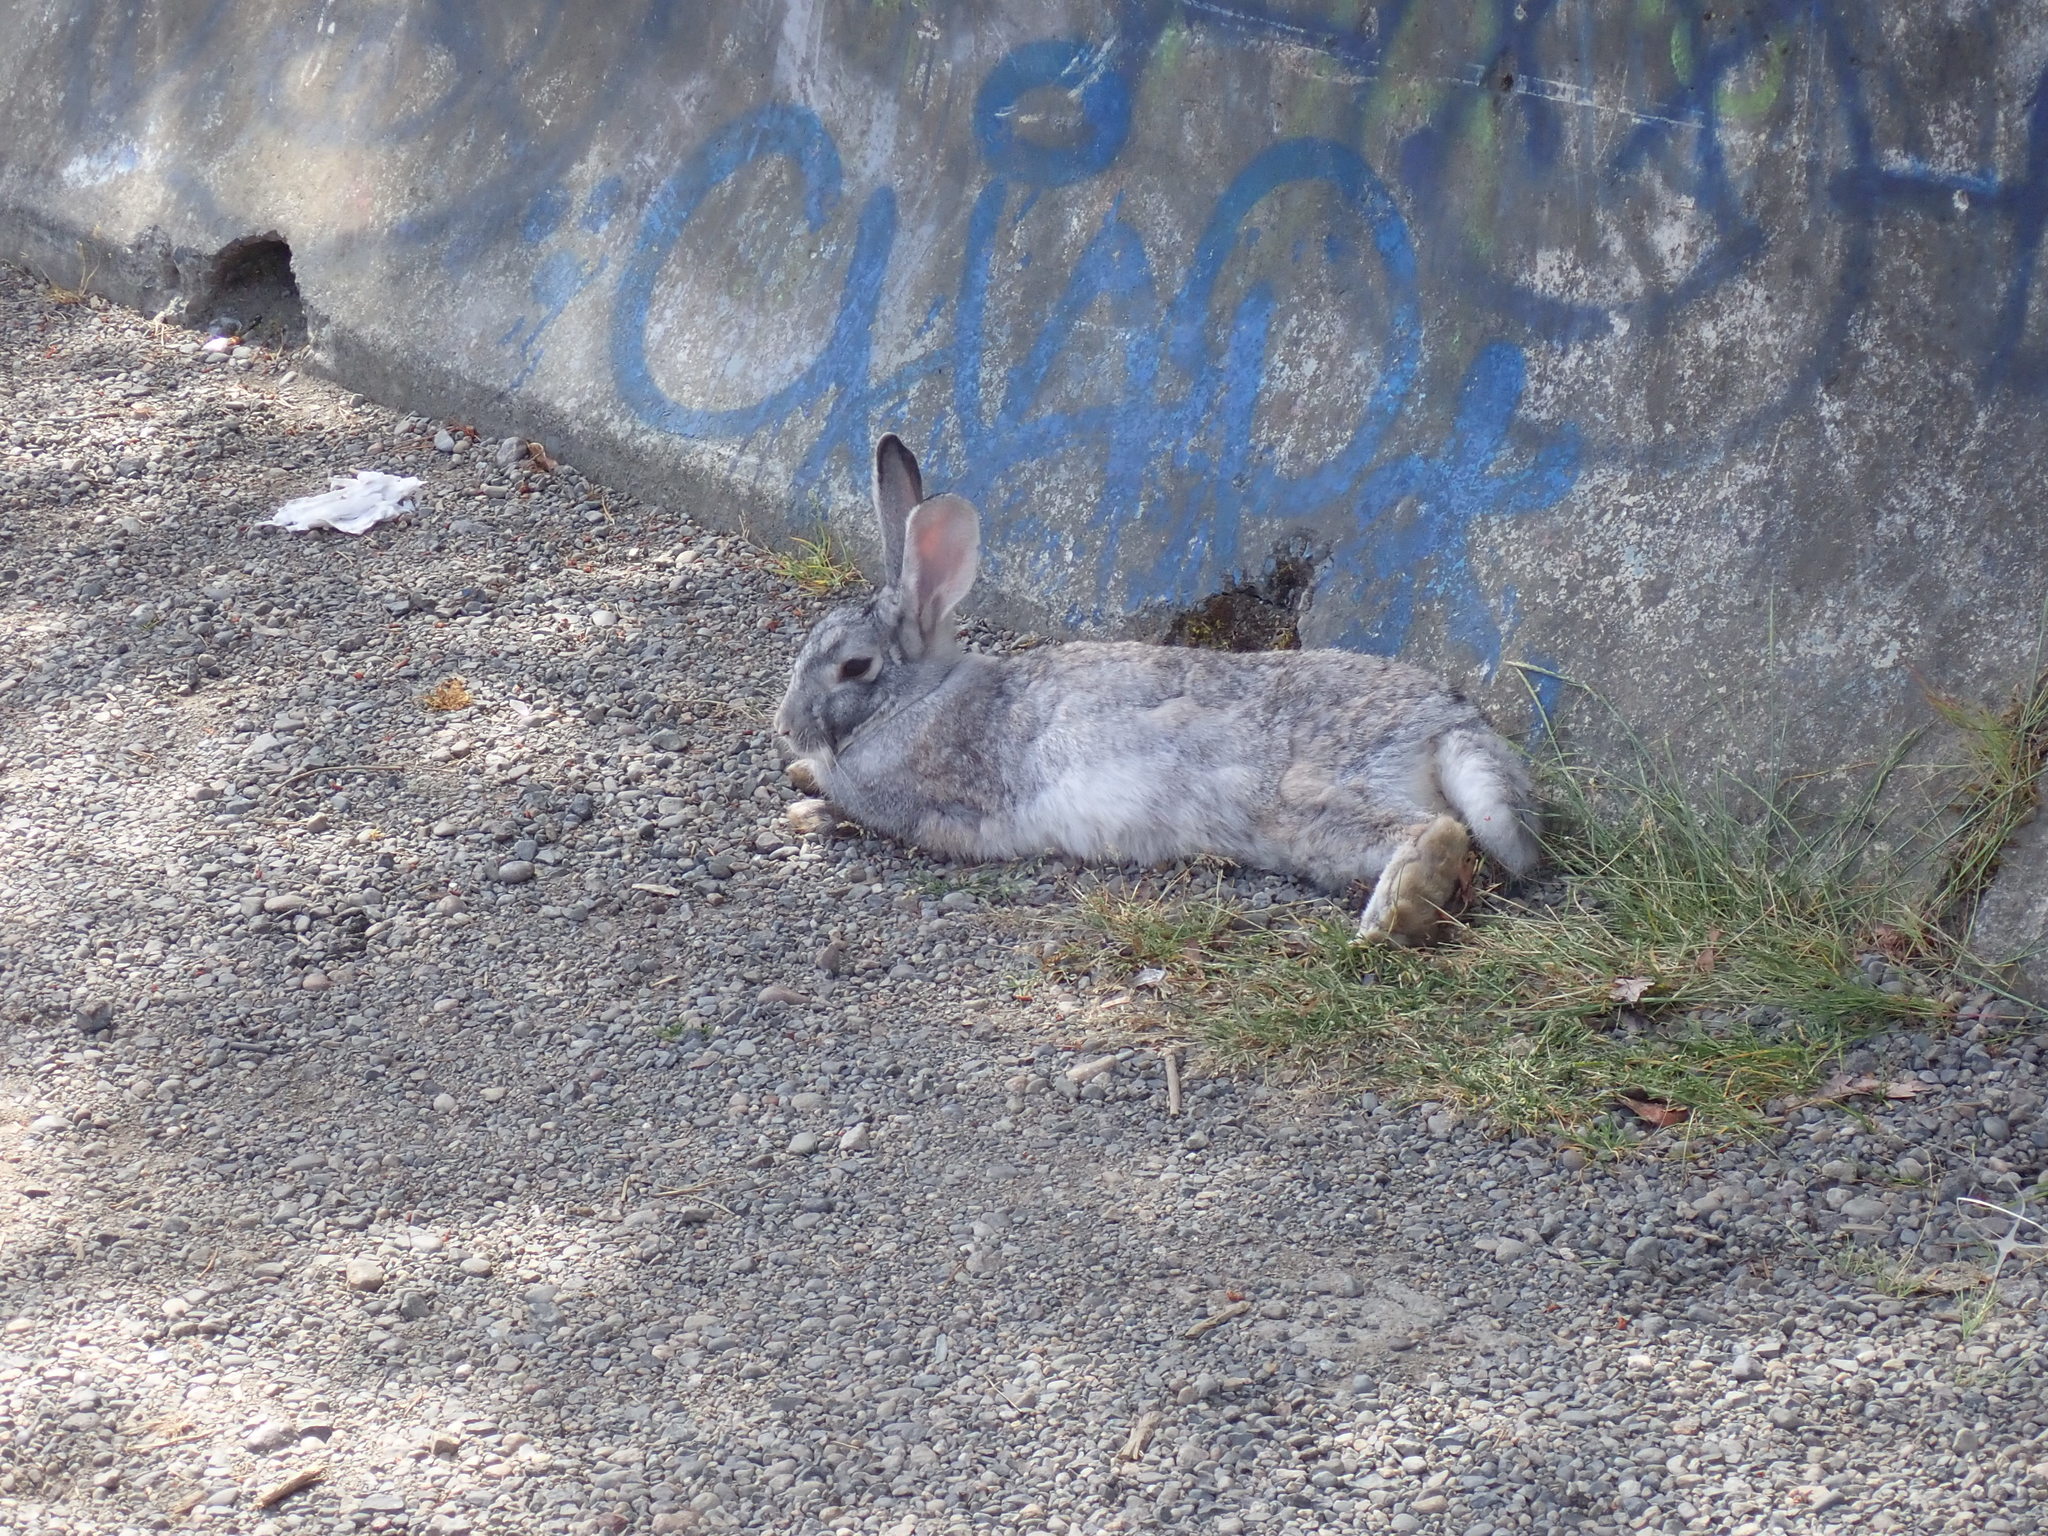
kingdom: Animalia
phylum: Chordata
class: Mammalia
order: Lagomorpha
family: Leporidae
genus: Oryctolagus
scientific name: Oryctolagus cuniculus
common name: European rabbit
